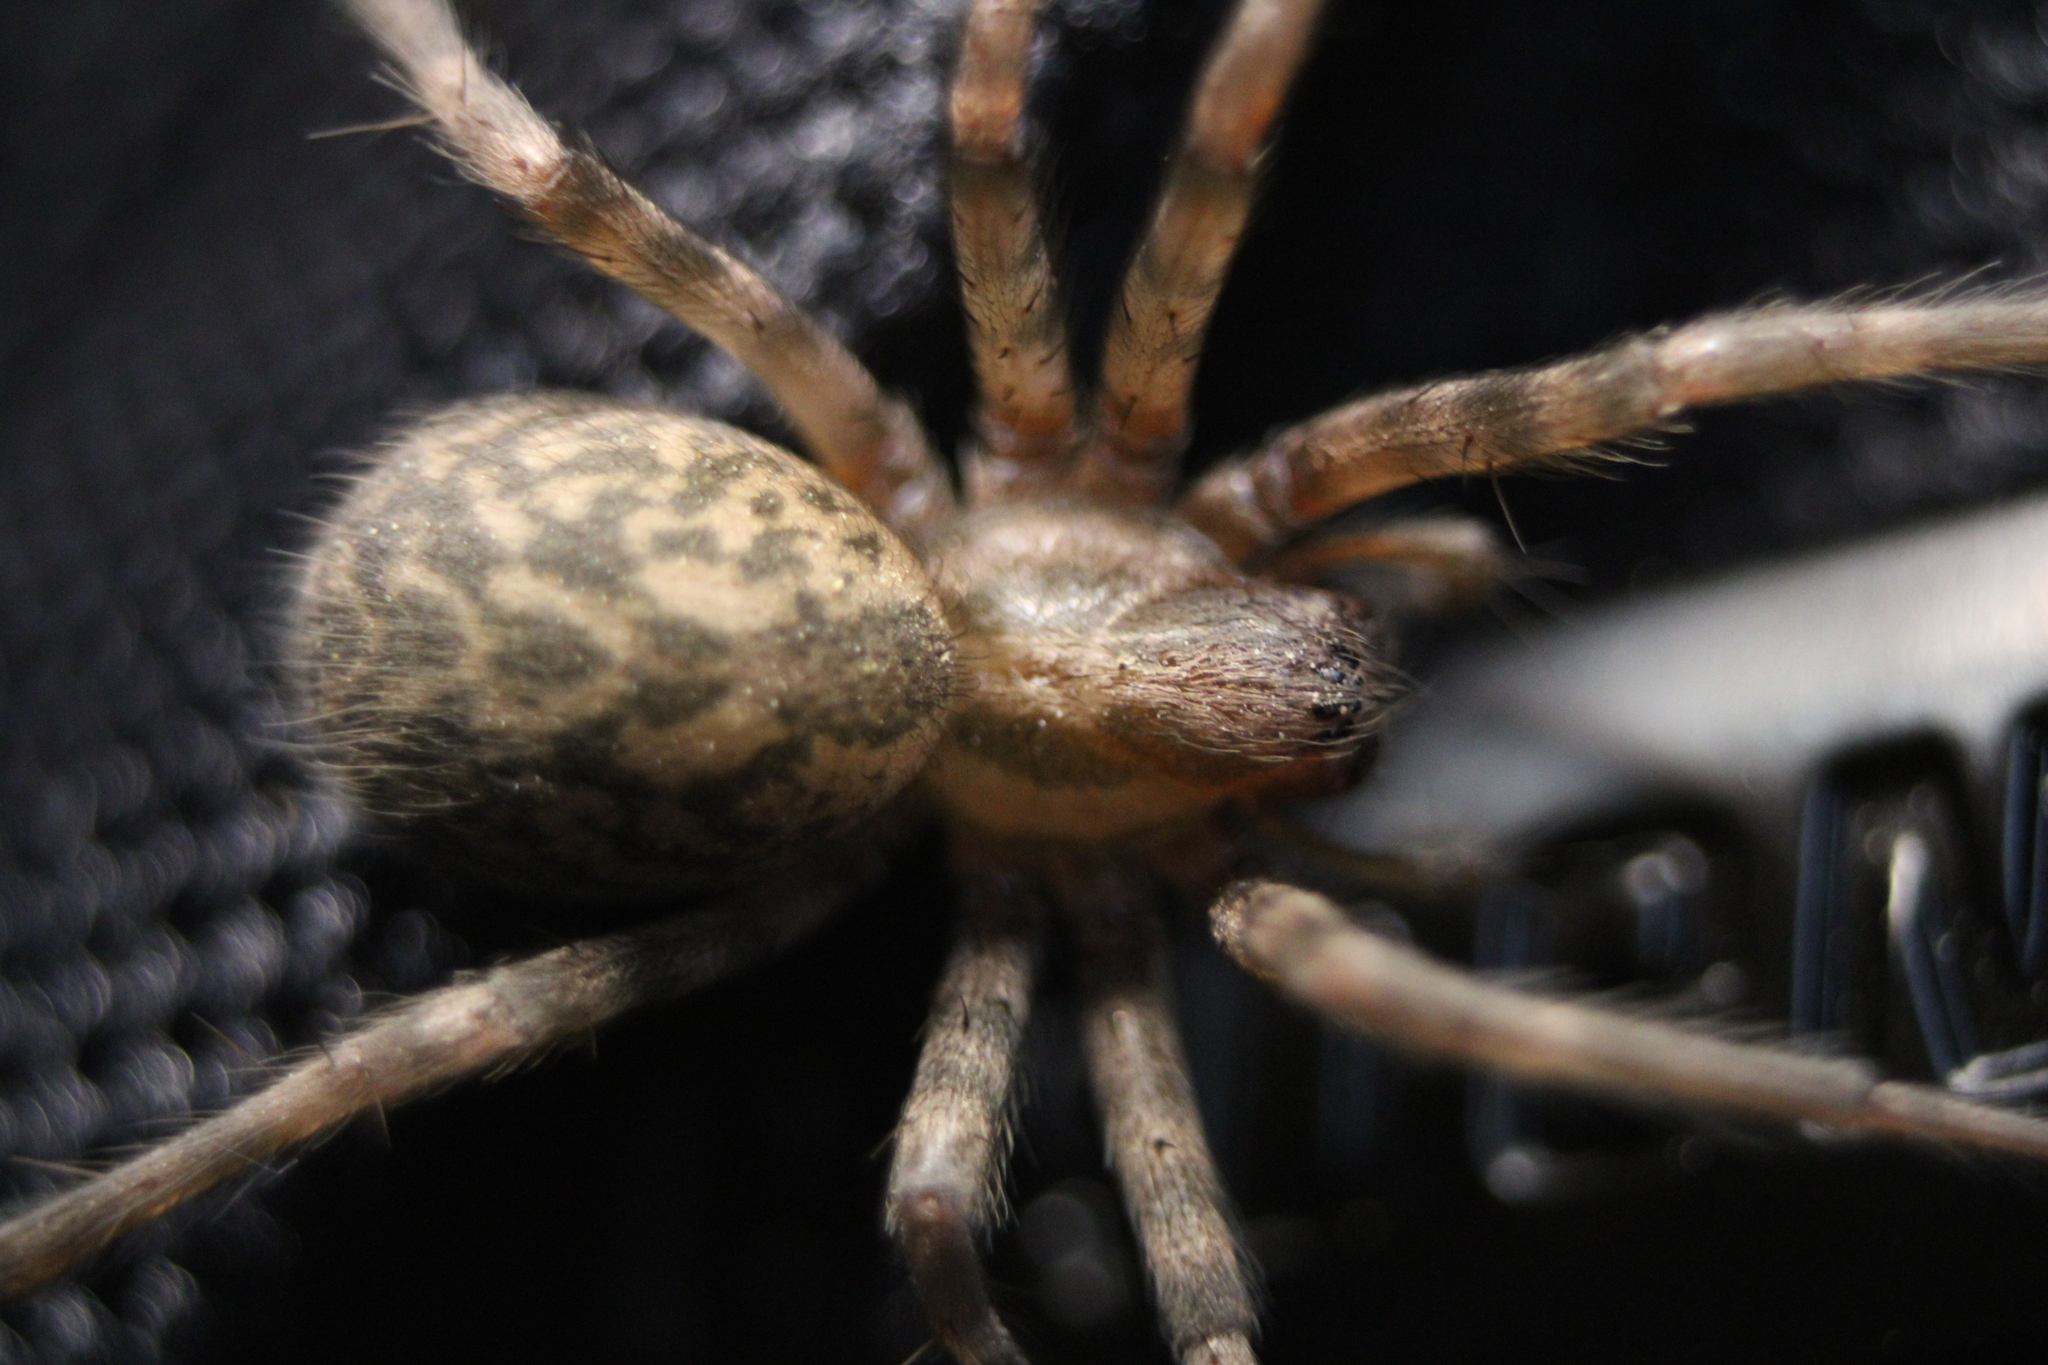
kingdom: Animalia
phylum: Arthropoda
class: Arachnida
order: Araneae
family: Agelenidae
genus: Tegenaria
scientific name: Tegenaria domestica
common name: Barn funnel weaver
